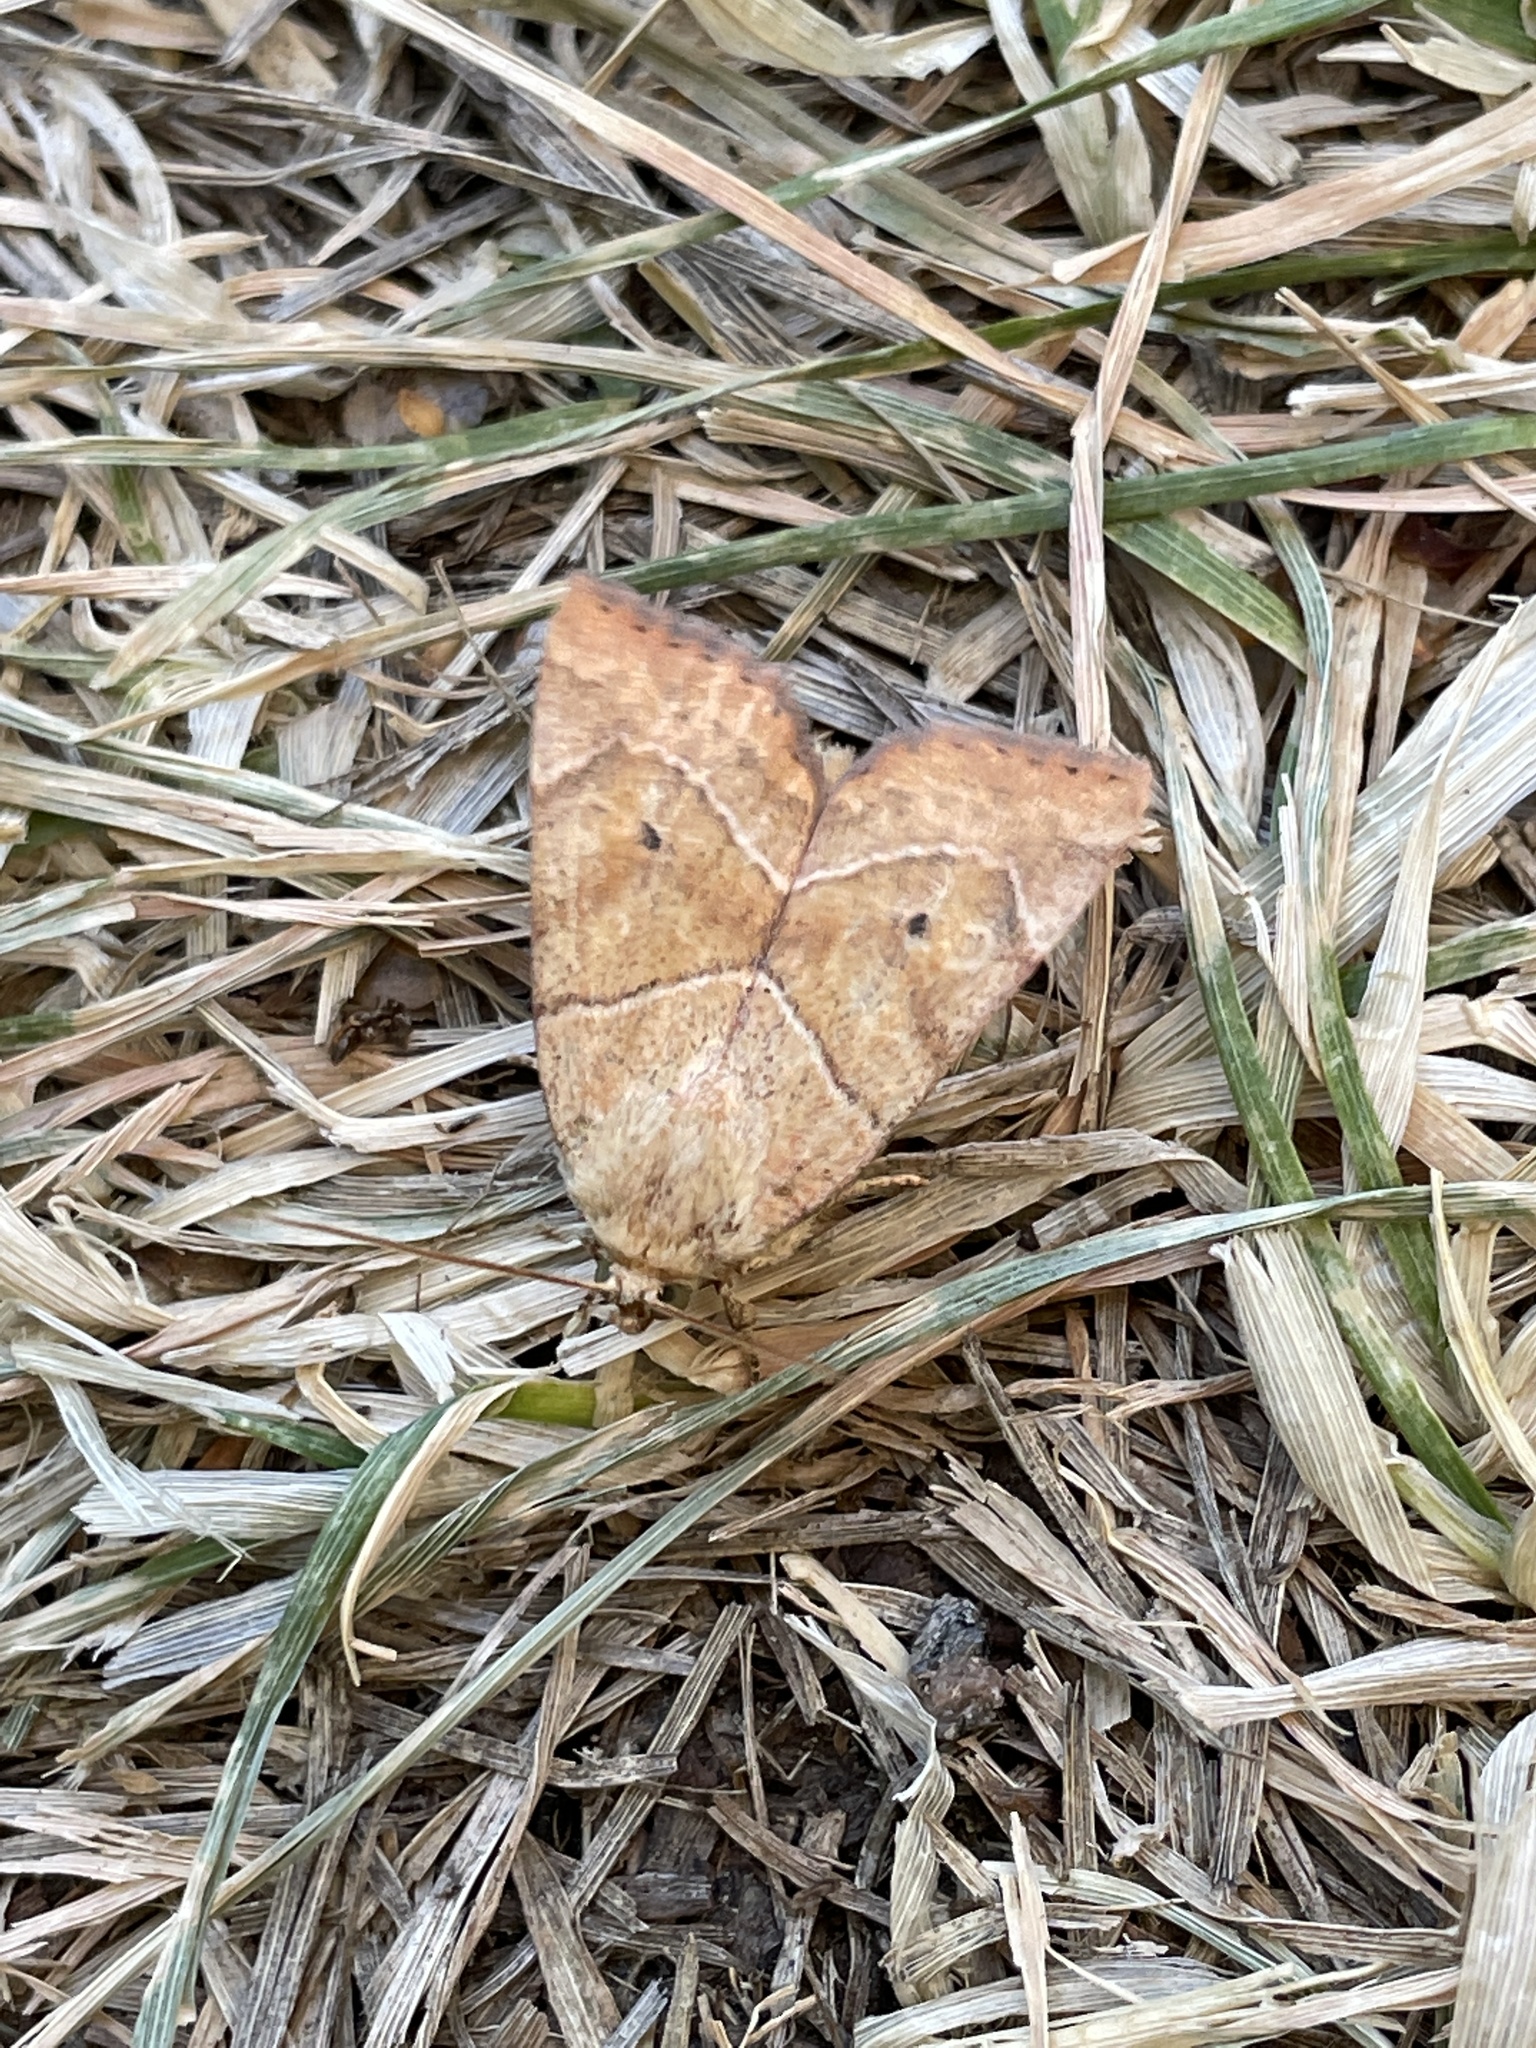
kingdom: Animalia
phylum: Arthropoda
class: Insecta
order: Lepidoptera
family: Noctuidae
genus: Cosmia
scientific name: Cosmia trapezina
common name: Dun-bar
